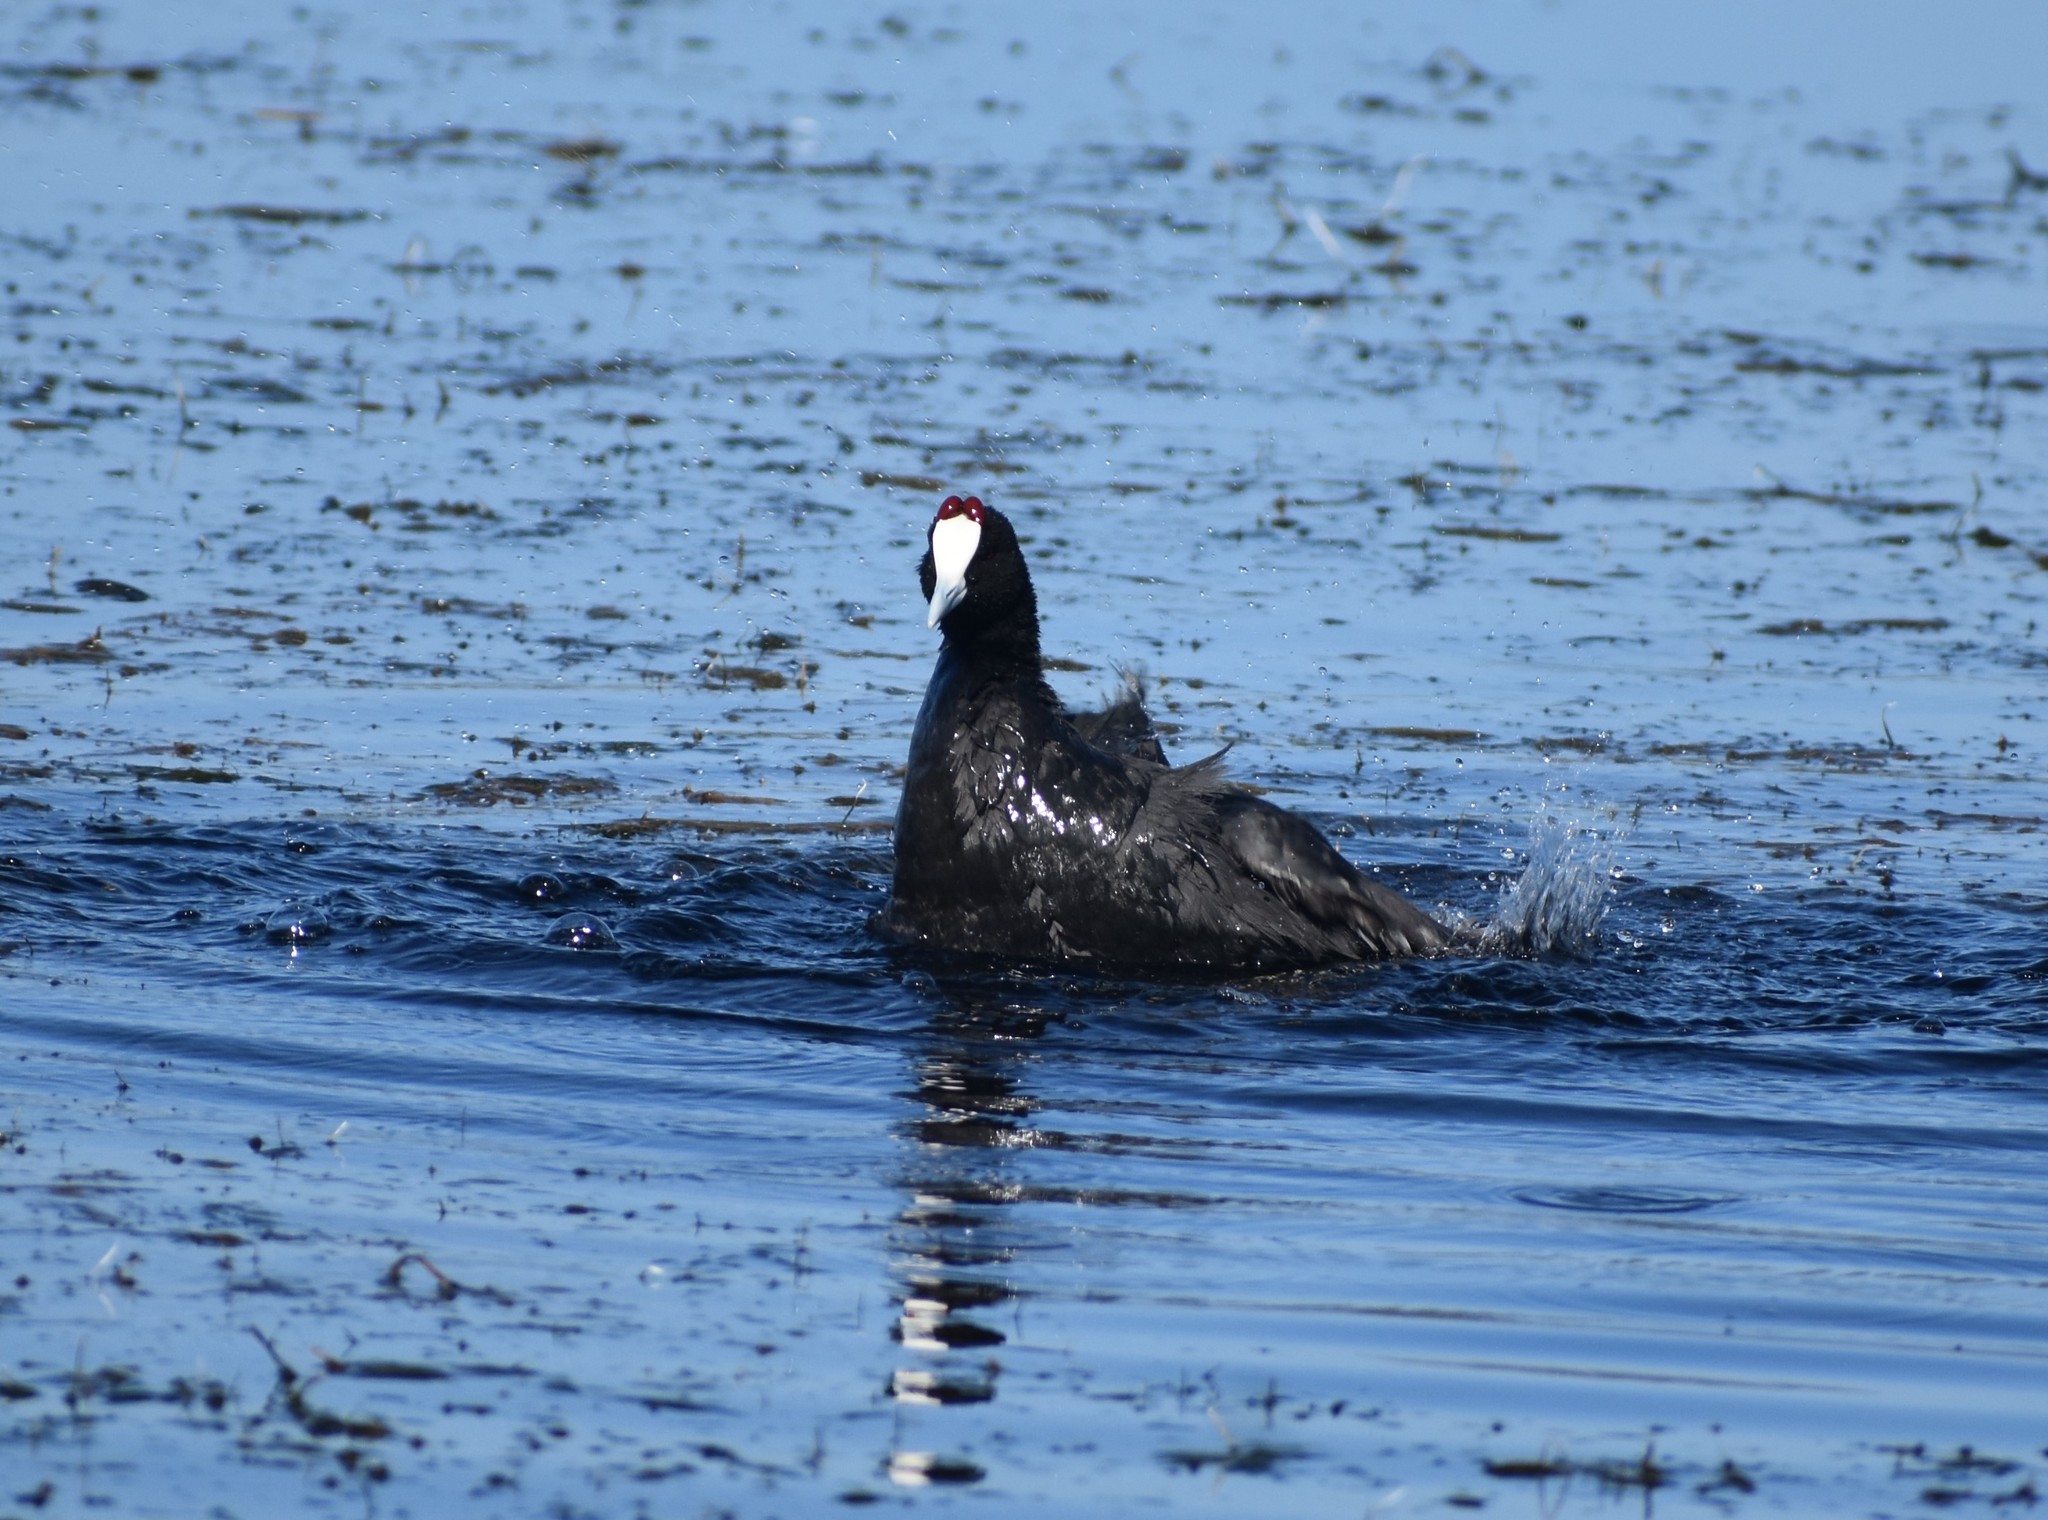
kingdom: Animalia
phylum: Chordata
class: Aves
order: Gruiformes
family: Rallidae
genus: Fulica
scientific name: Fulica cristata
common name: Red-knobbed coot
